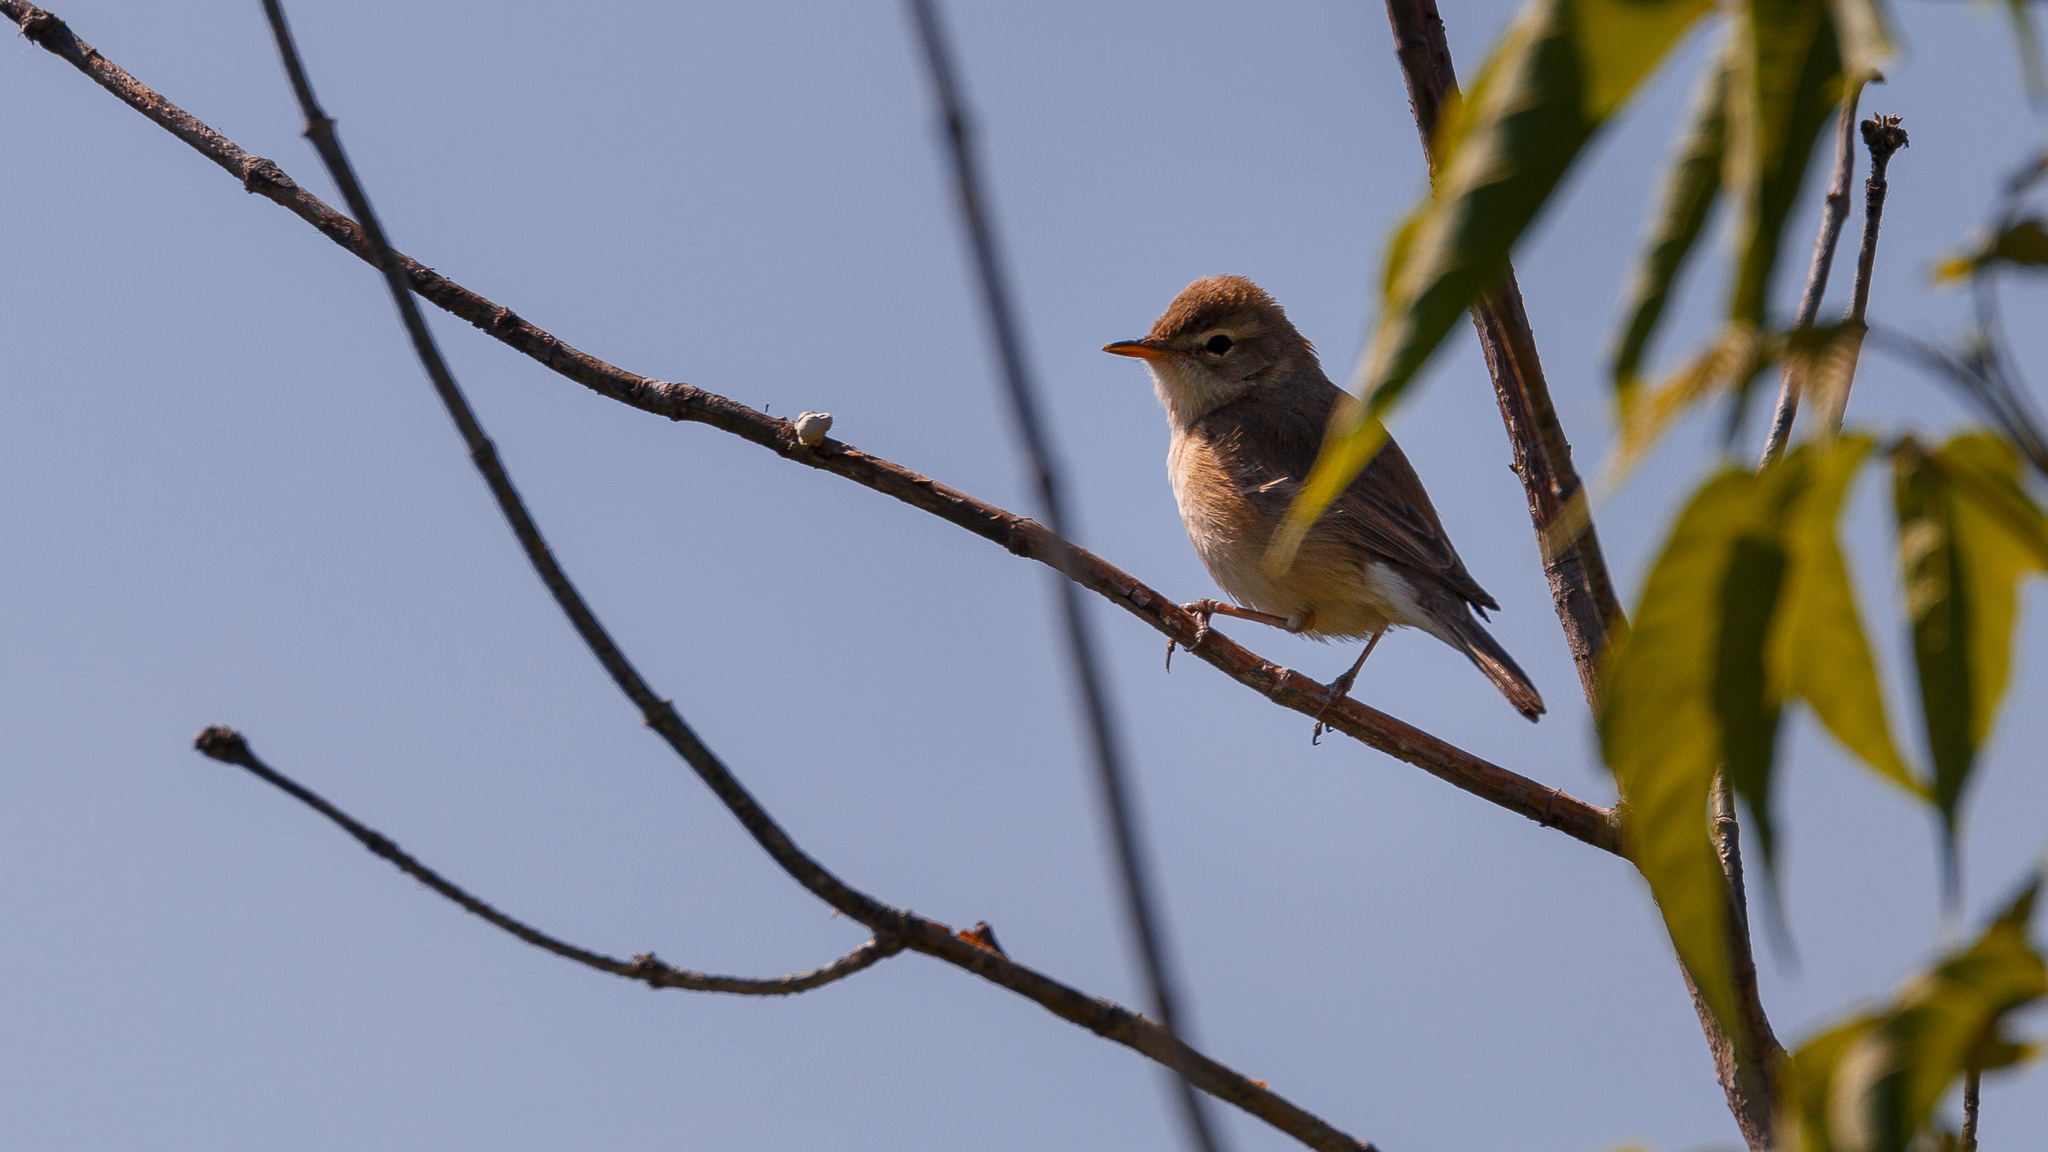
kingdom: Animalia
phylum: Chordata
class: Aves
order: Passeriformes
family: Acrocephalidae
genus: Iduna
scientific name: Iduna caligata
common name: Booted warbler
